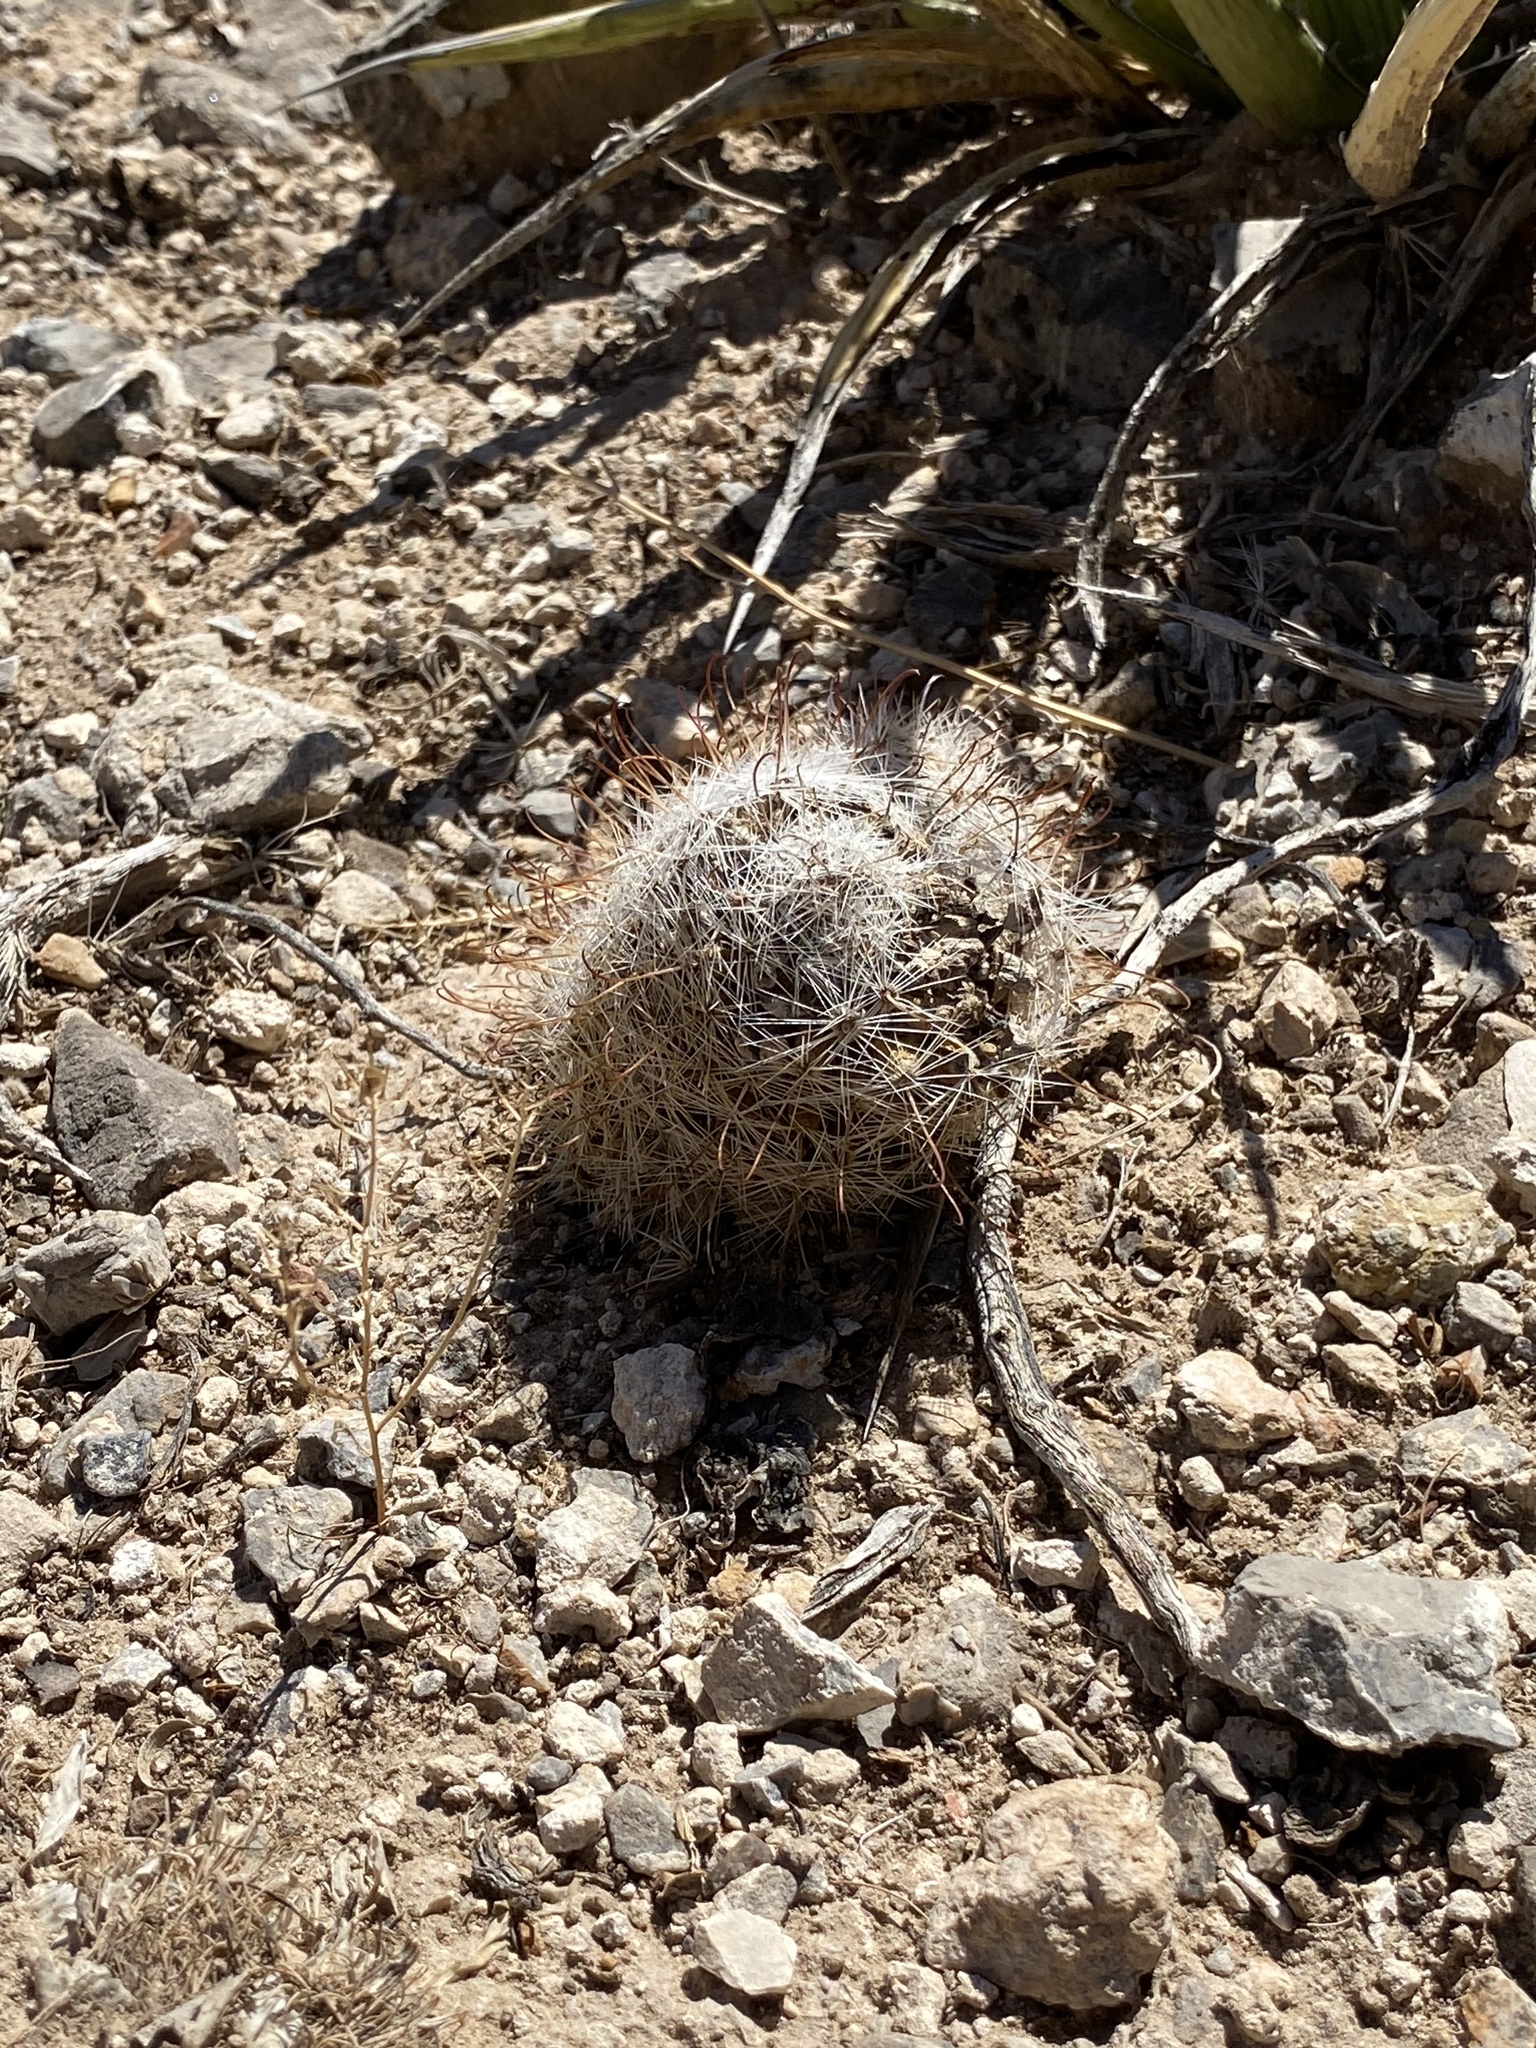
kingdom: Plantae
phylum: Tracheophyta
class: Magnoliopsida
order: Caryophyllales
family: Cactaceae
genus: Cochemiea
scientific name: Cochemiea grahamii
